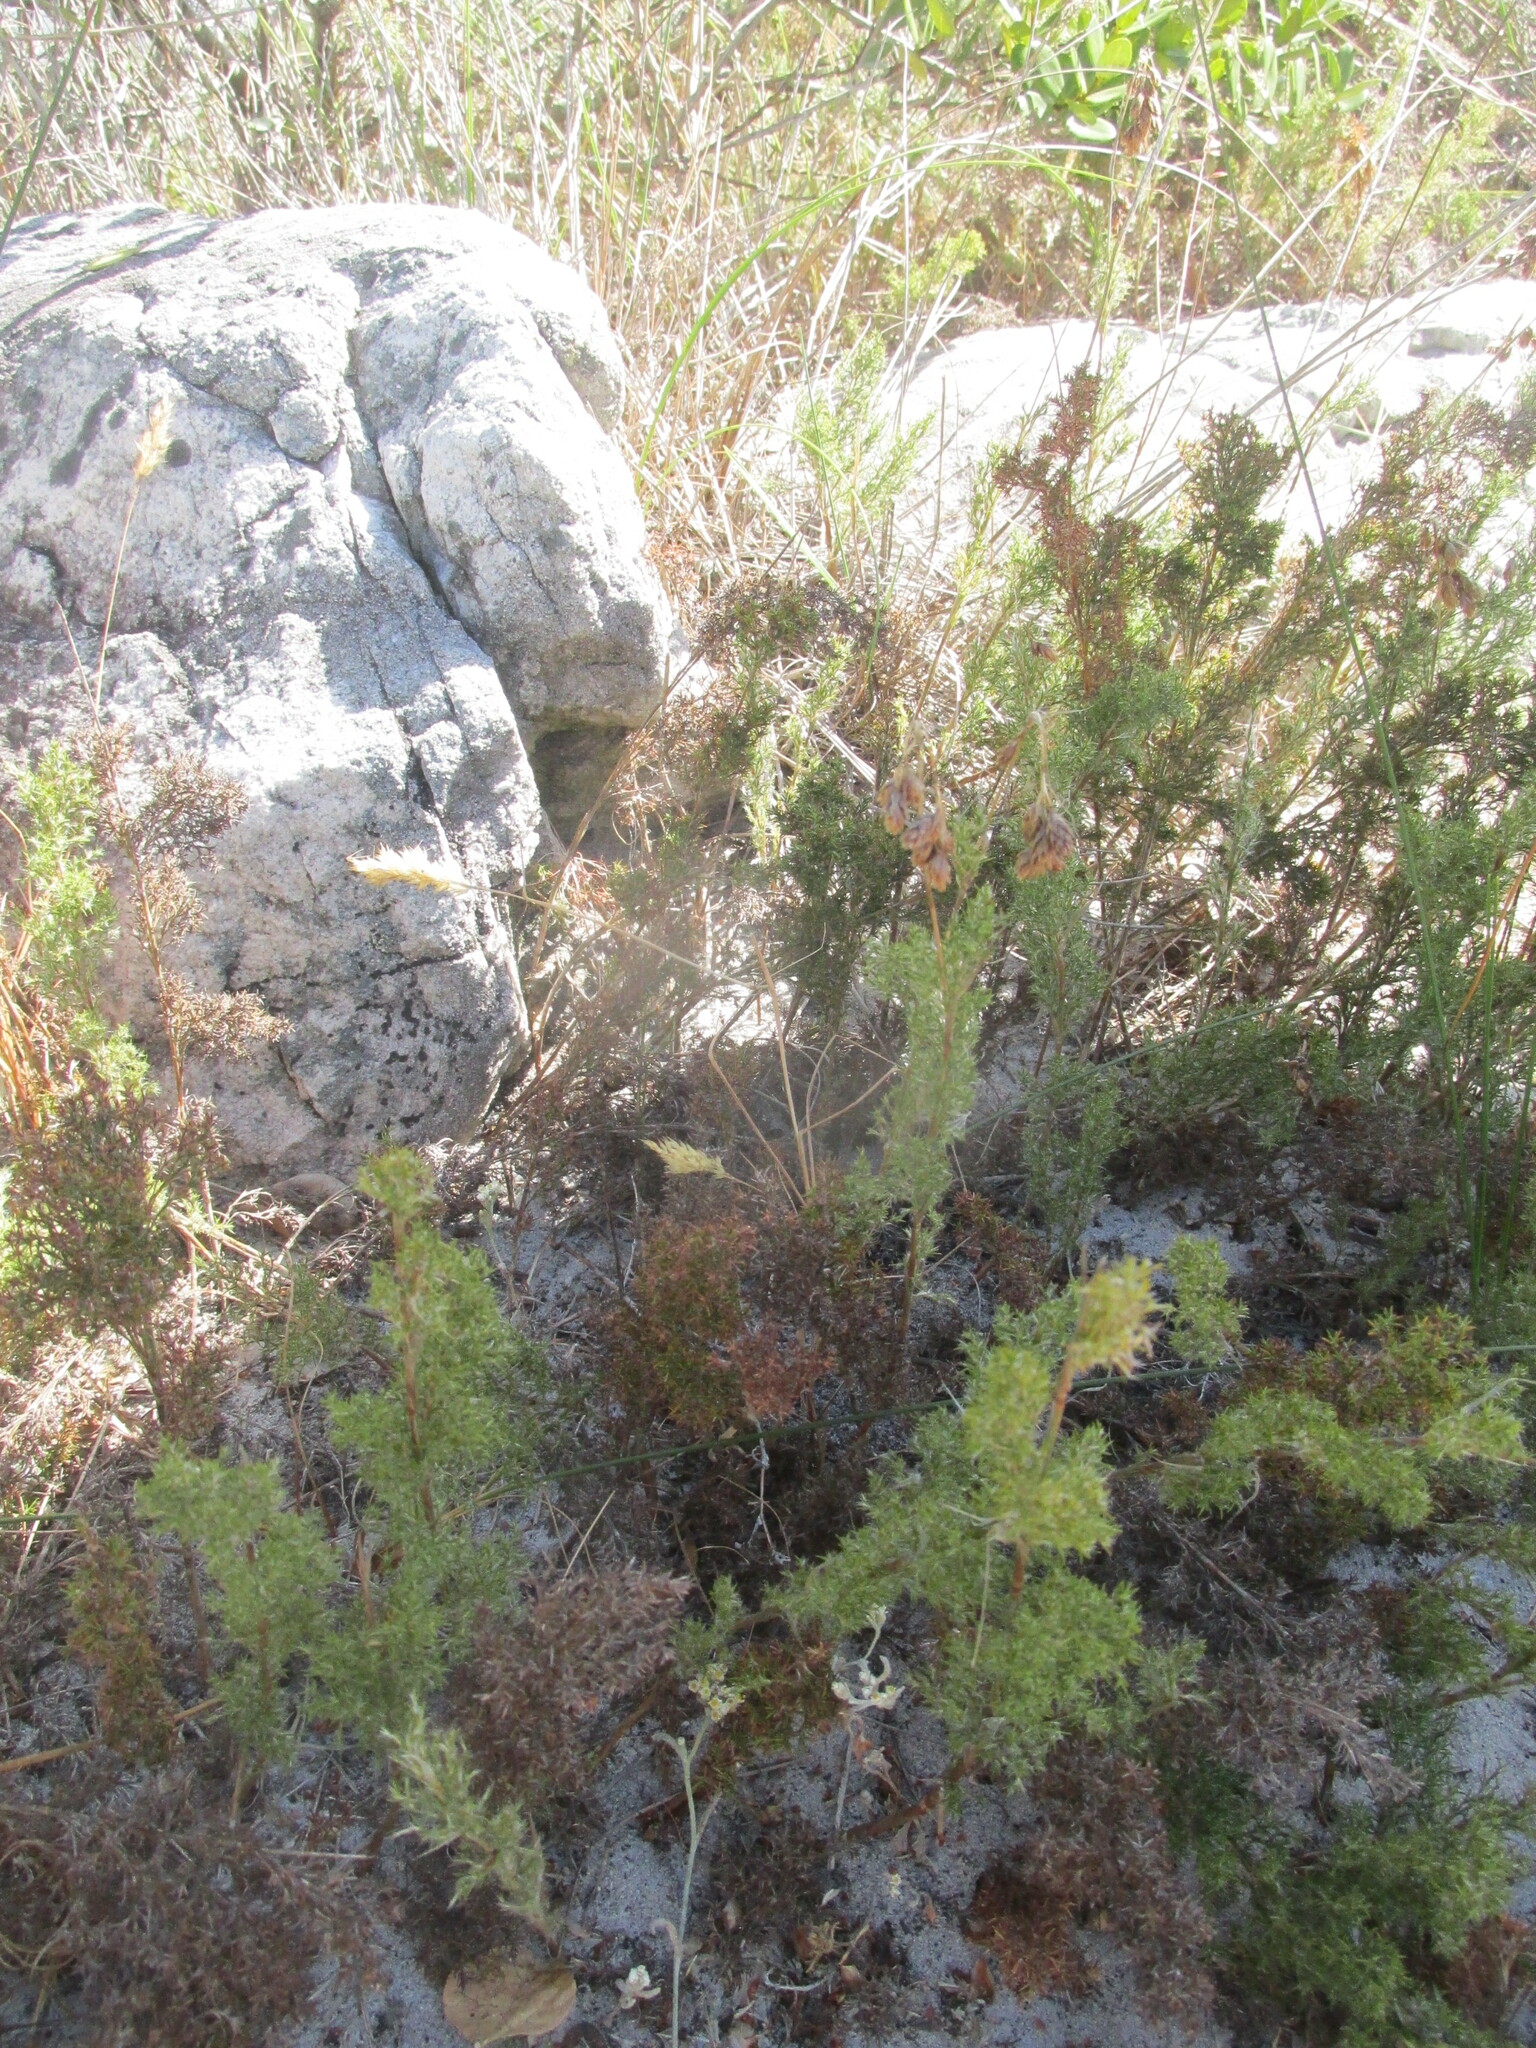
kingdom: Plantae
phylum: Tracheophyta
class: Liliopsida
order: Poales
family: Restionaceae
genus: Thamnochortus
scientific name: Thamnochortus fruticosus
